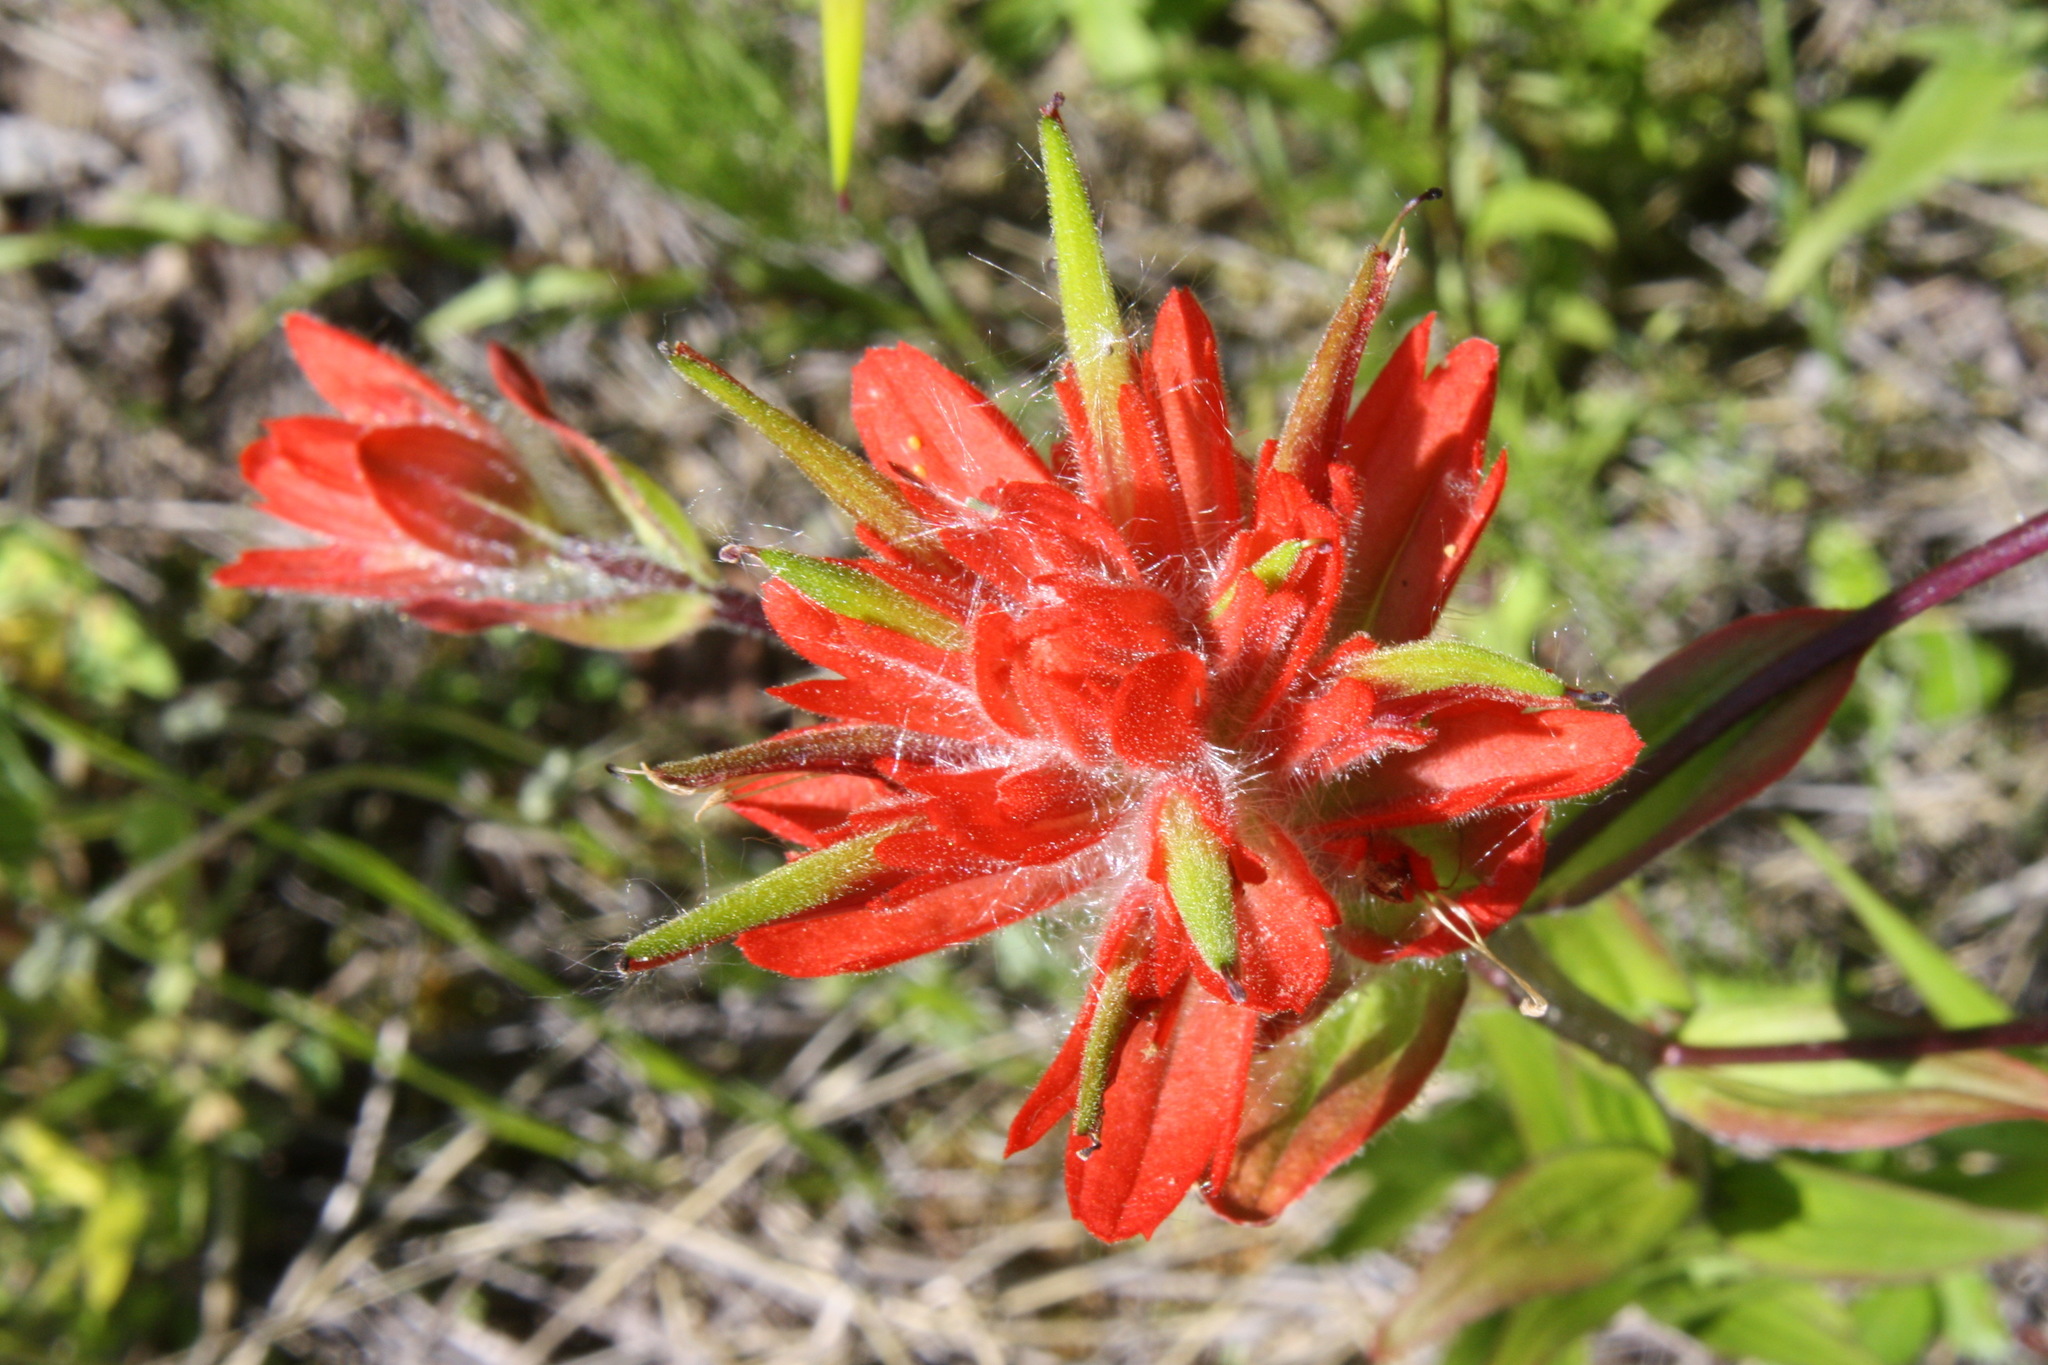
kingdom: Plantae
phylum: Tracheophyta
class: Magnoliopsida
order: Lamiales
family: Orobanchaceae
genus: Castilleja
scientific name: Castilleja miniata
